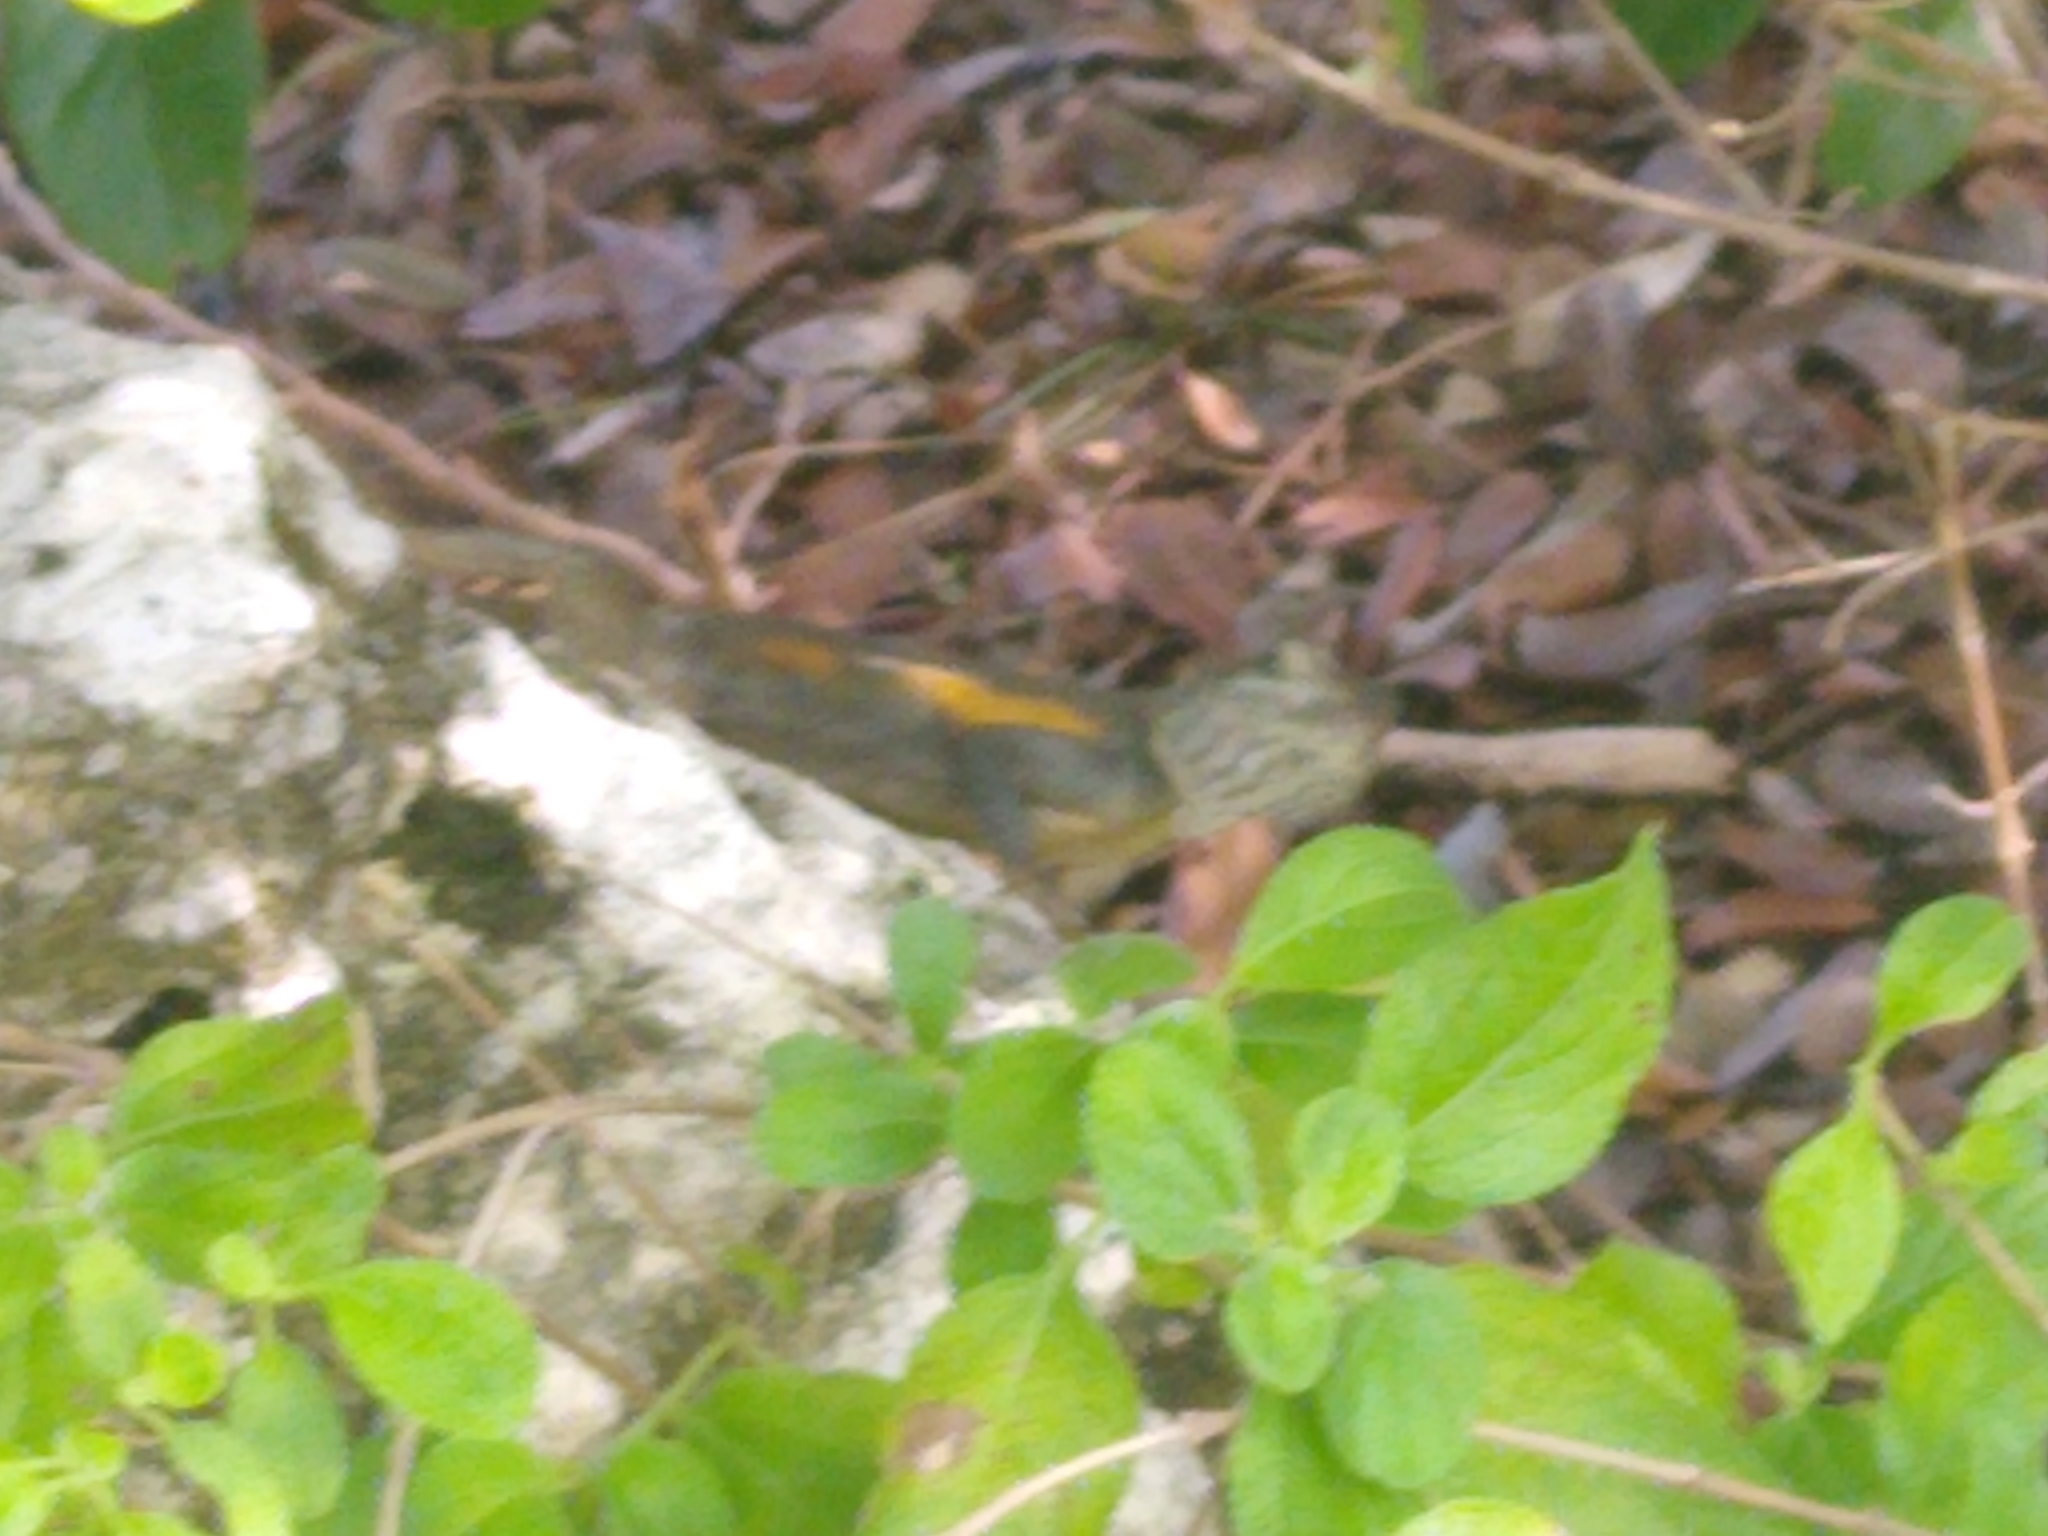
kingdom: Animalia
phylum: Chordata
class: Squamata
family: Agamidae
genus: Agama
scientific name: Agama picticauda
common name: Red-headed agama
